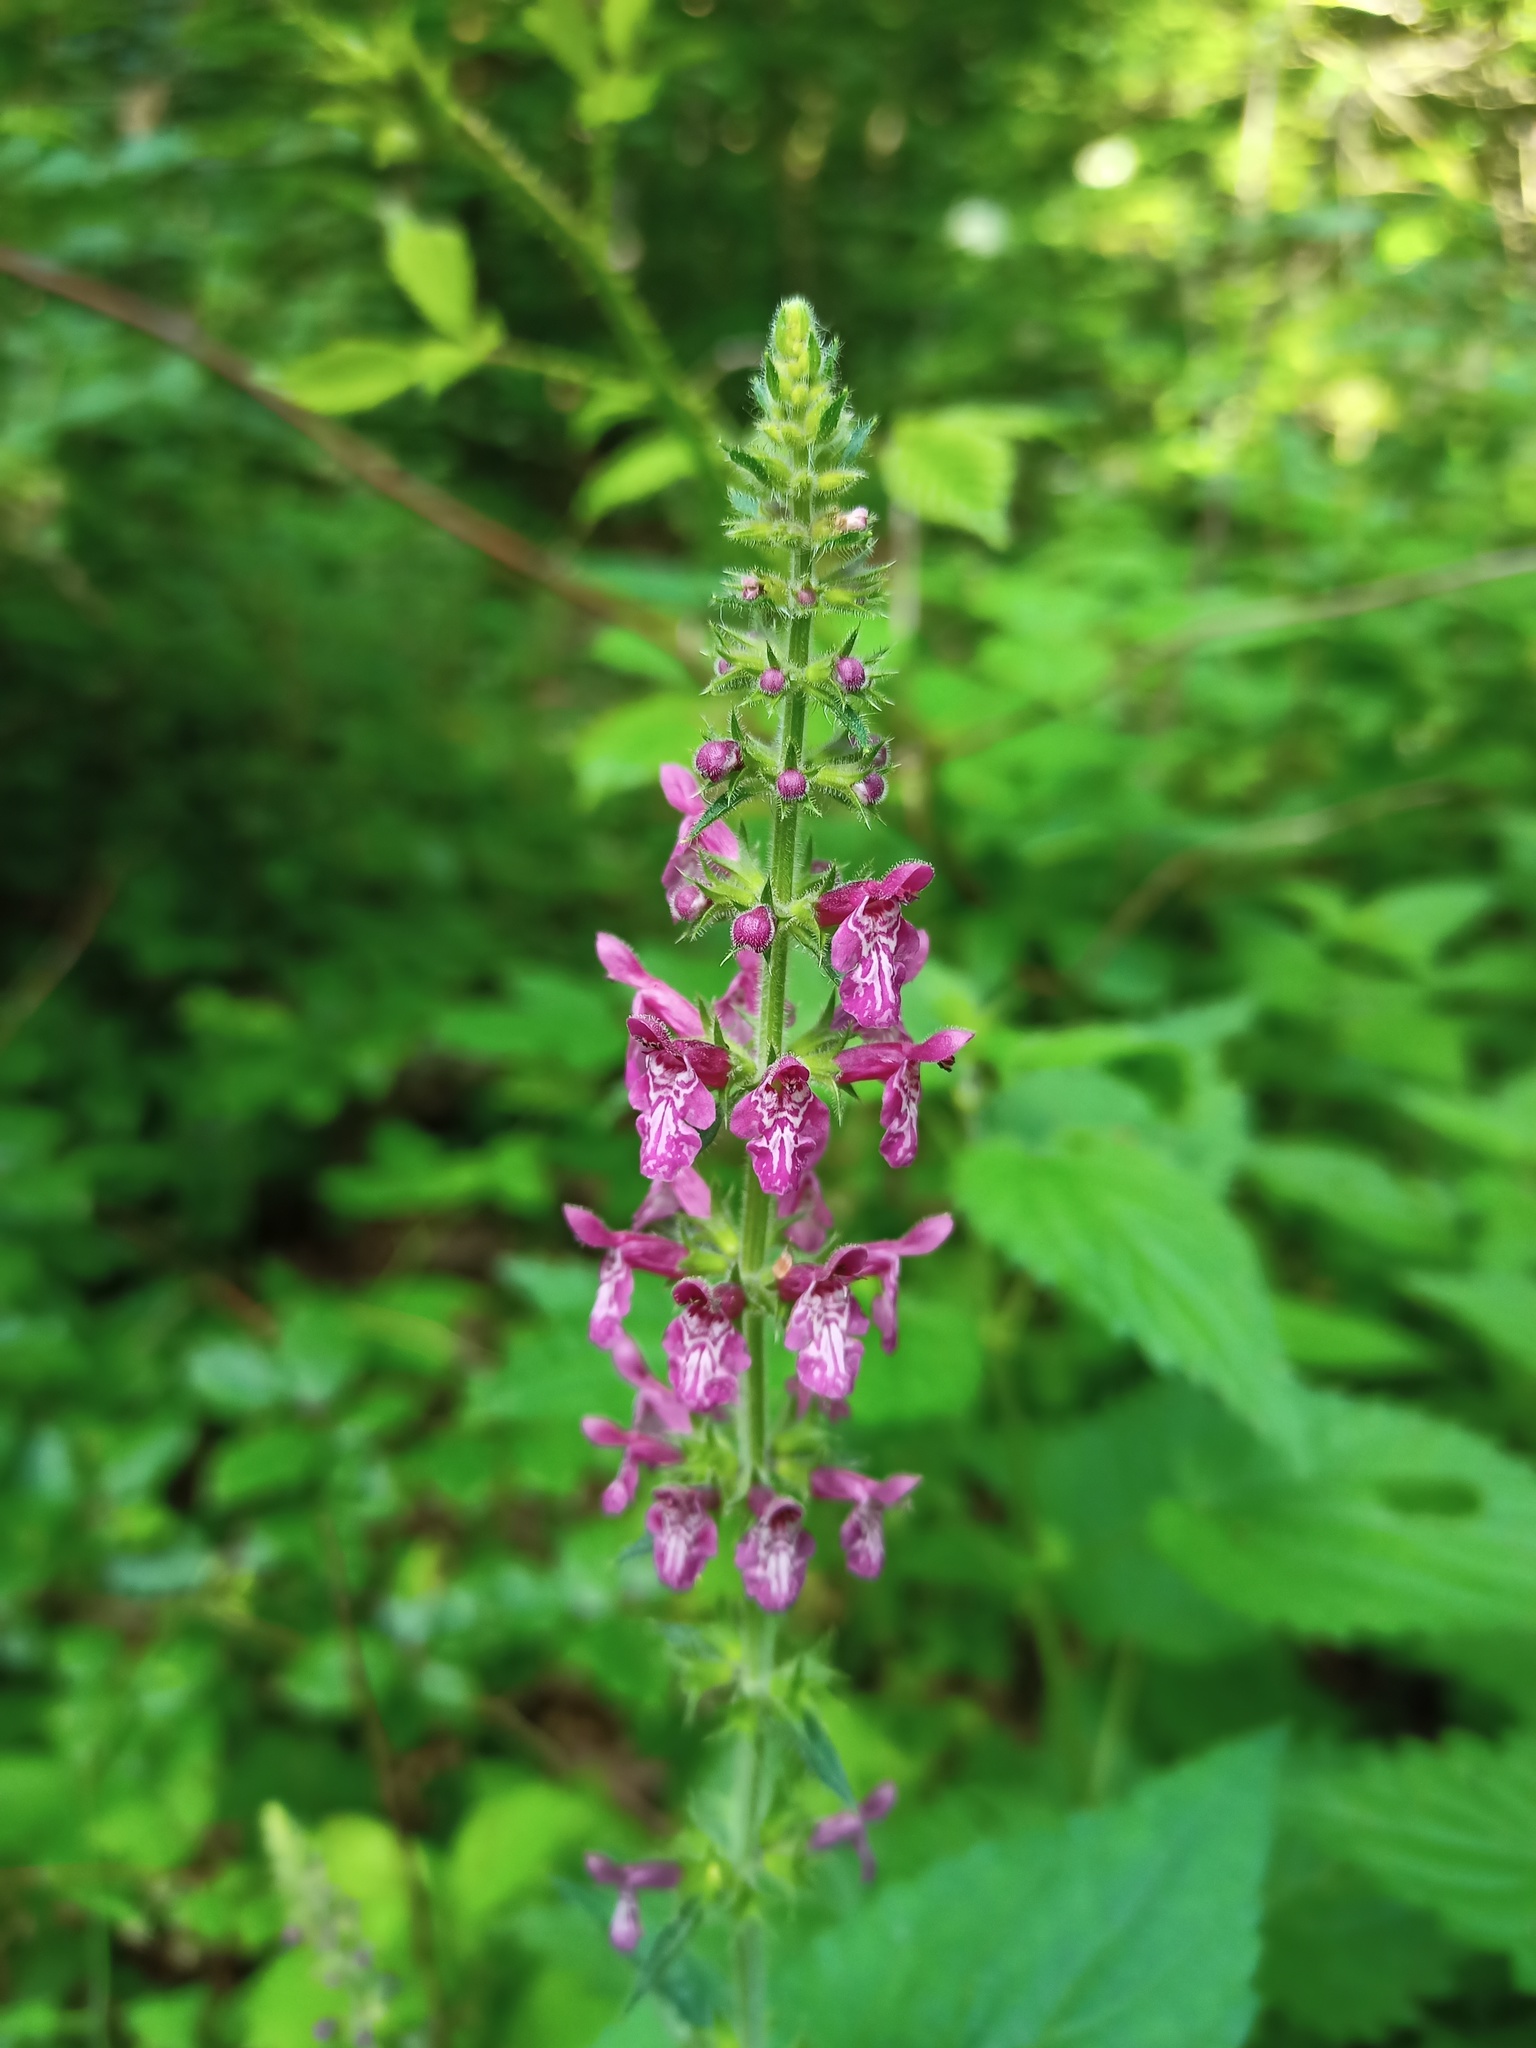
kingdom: Plantae
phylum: Tracheophyta
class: Magnoliopsida
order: Lamiales
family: Lamiaceae
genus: Stachys
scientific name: Stachys sylvatica
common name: Hedge woundwort
